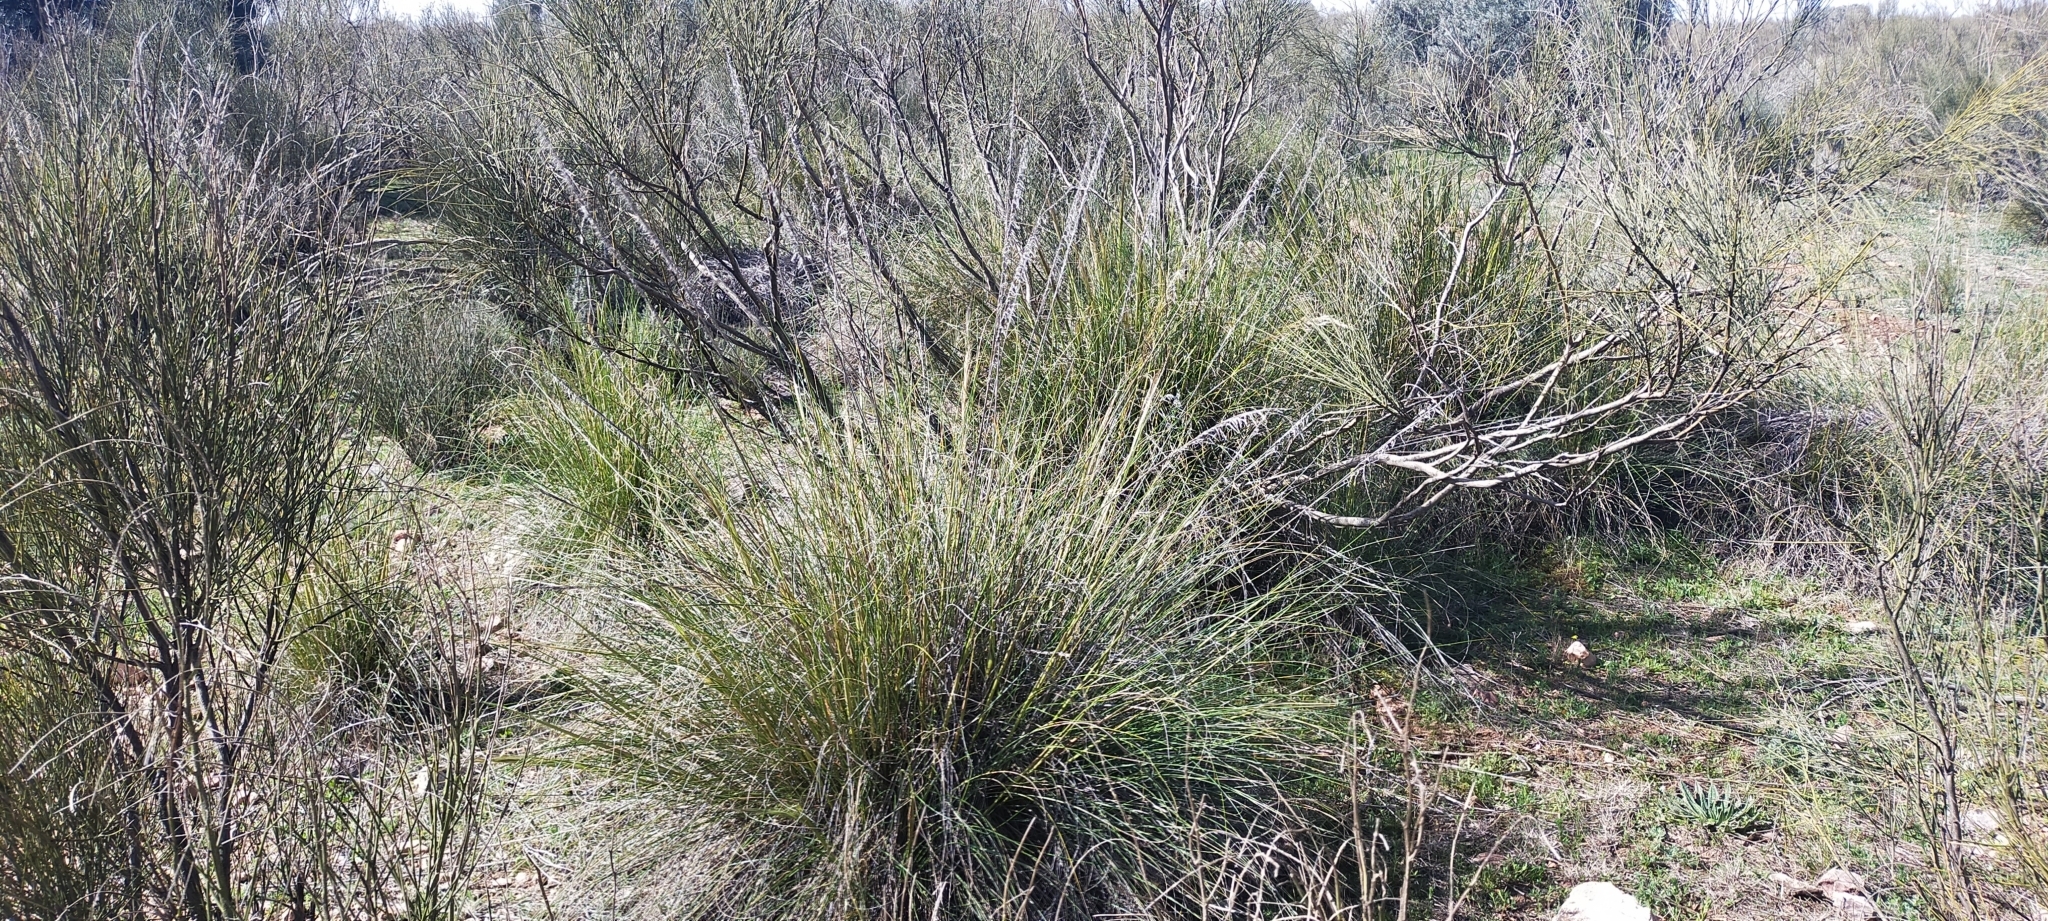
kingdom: Plantae
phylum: Tracheophyta
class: Liliopsida
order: Poales
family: Poaceae
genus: Macrochloa
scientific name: Macrochloa tenacissima
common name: Alfa grass
